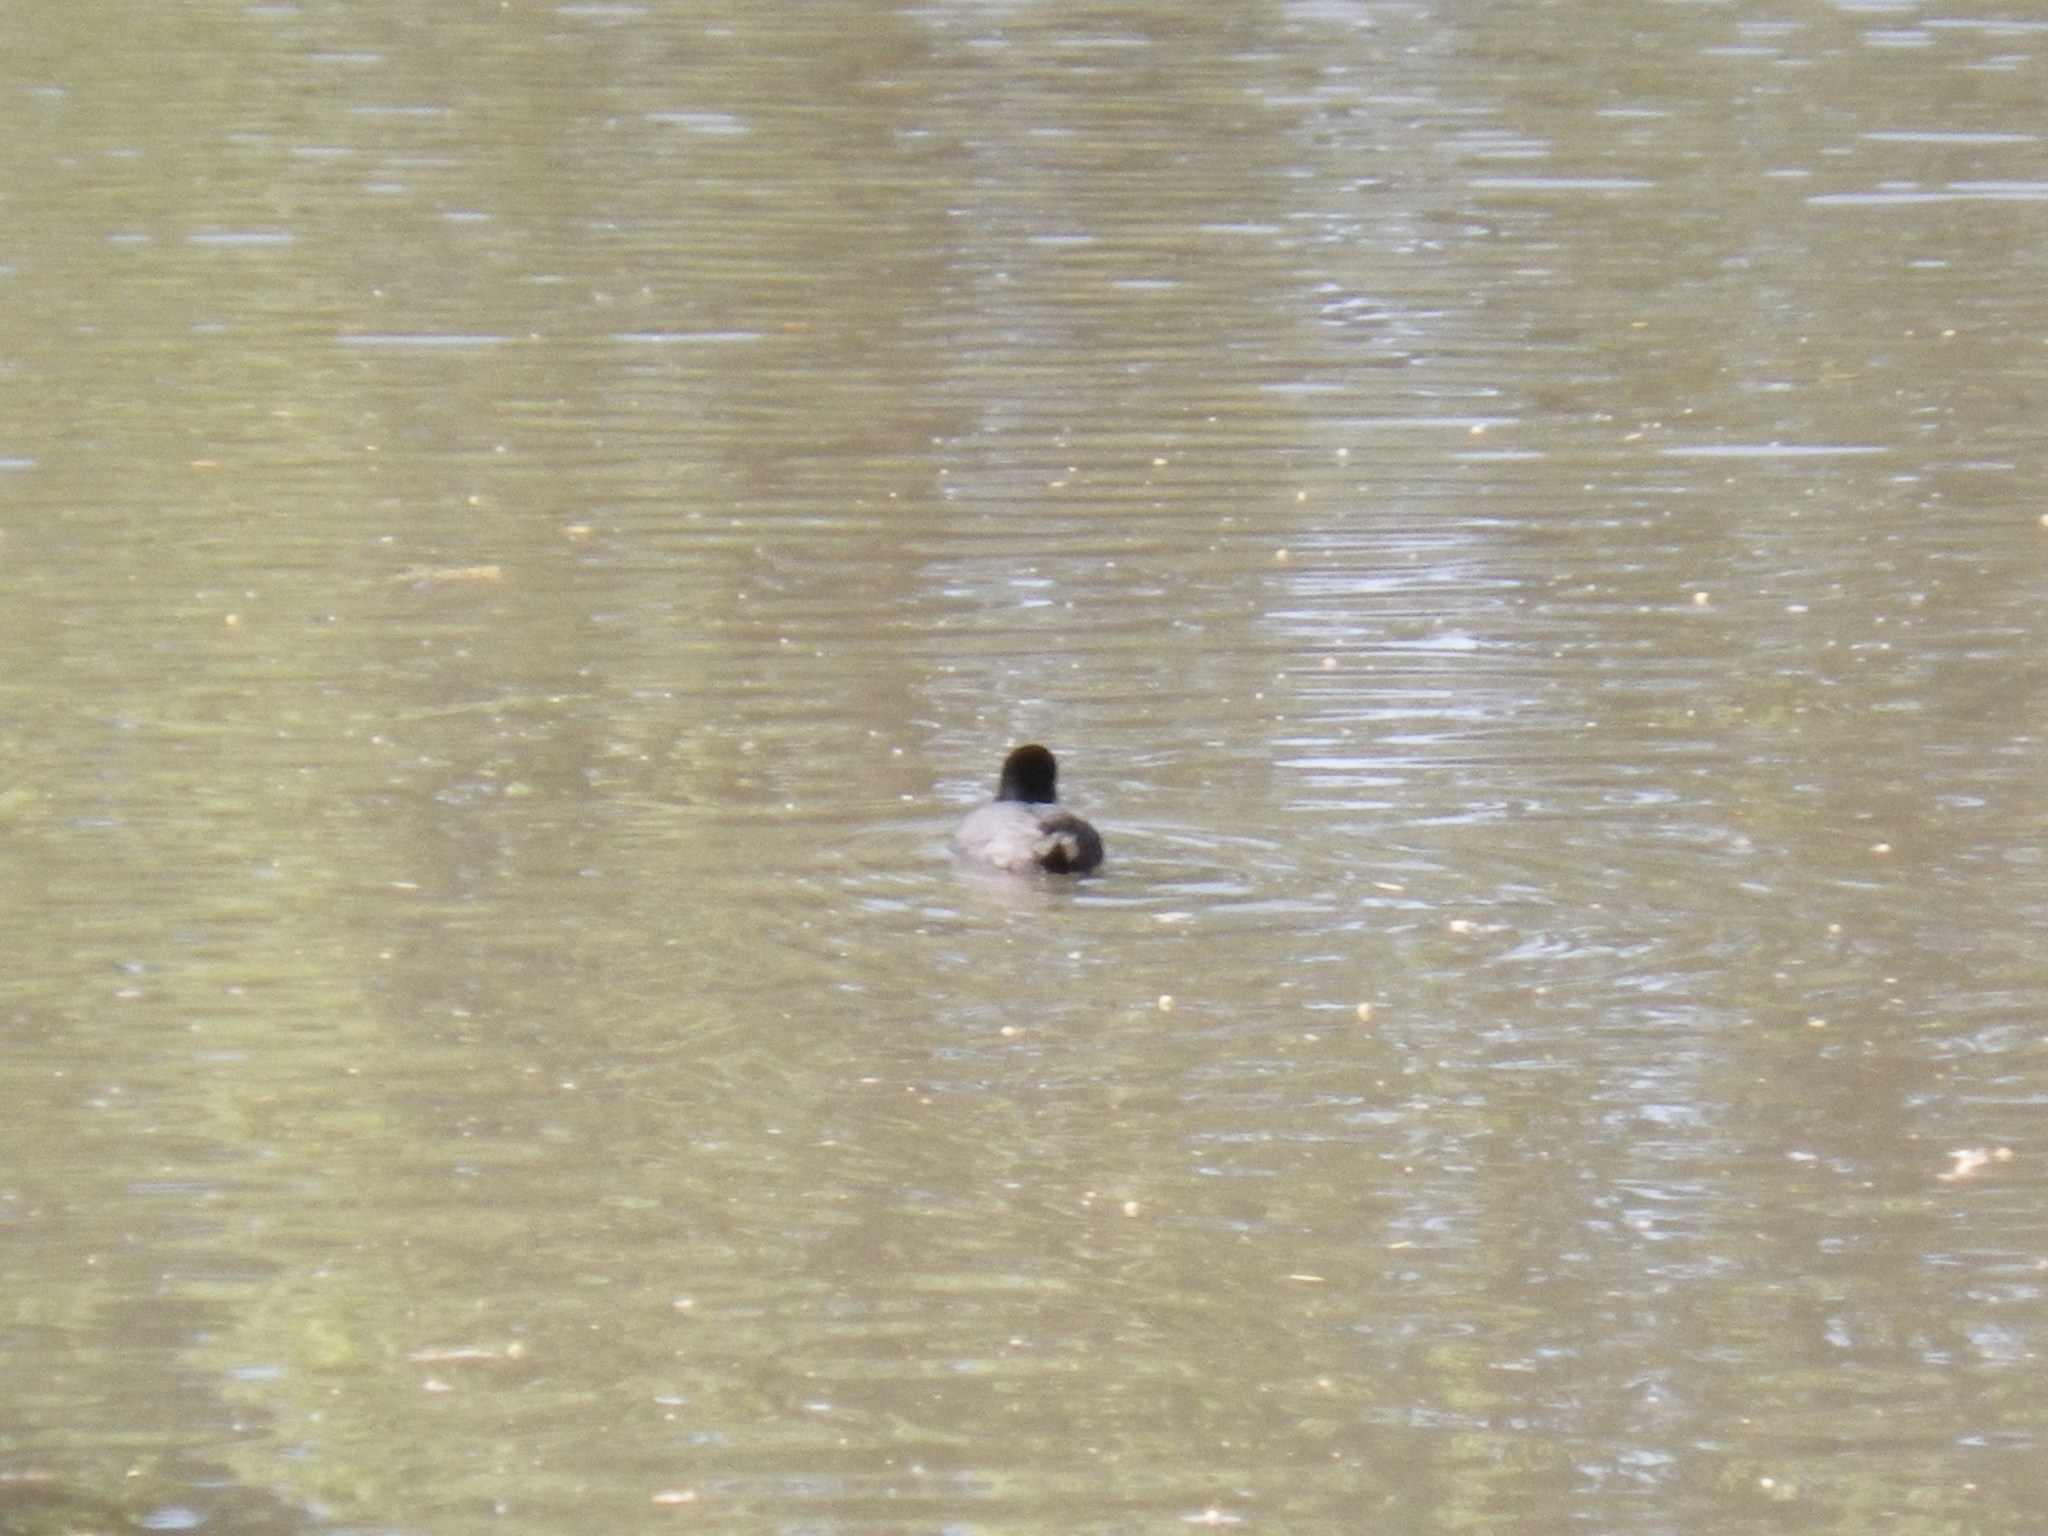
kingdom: Animalia
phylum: Chordata
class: Aves
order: Gruiformes
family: Rallidae
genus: Fulica
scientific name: Fulica americana
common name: American coot
